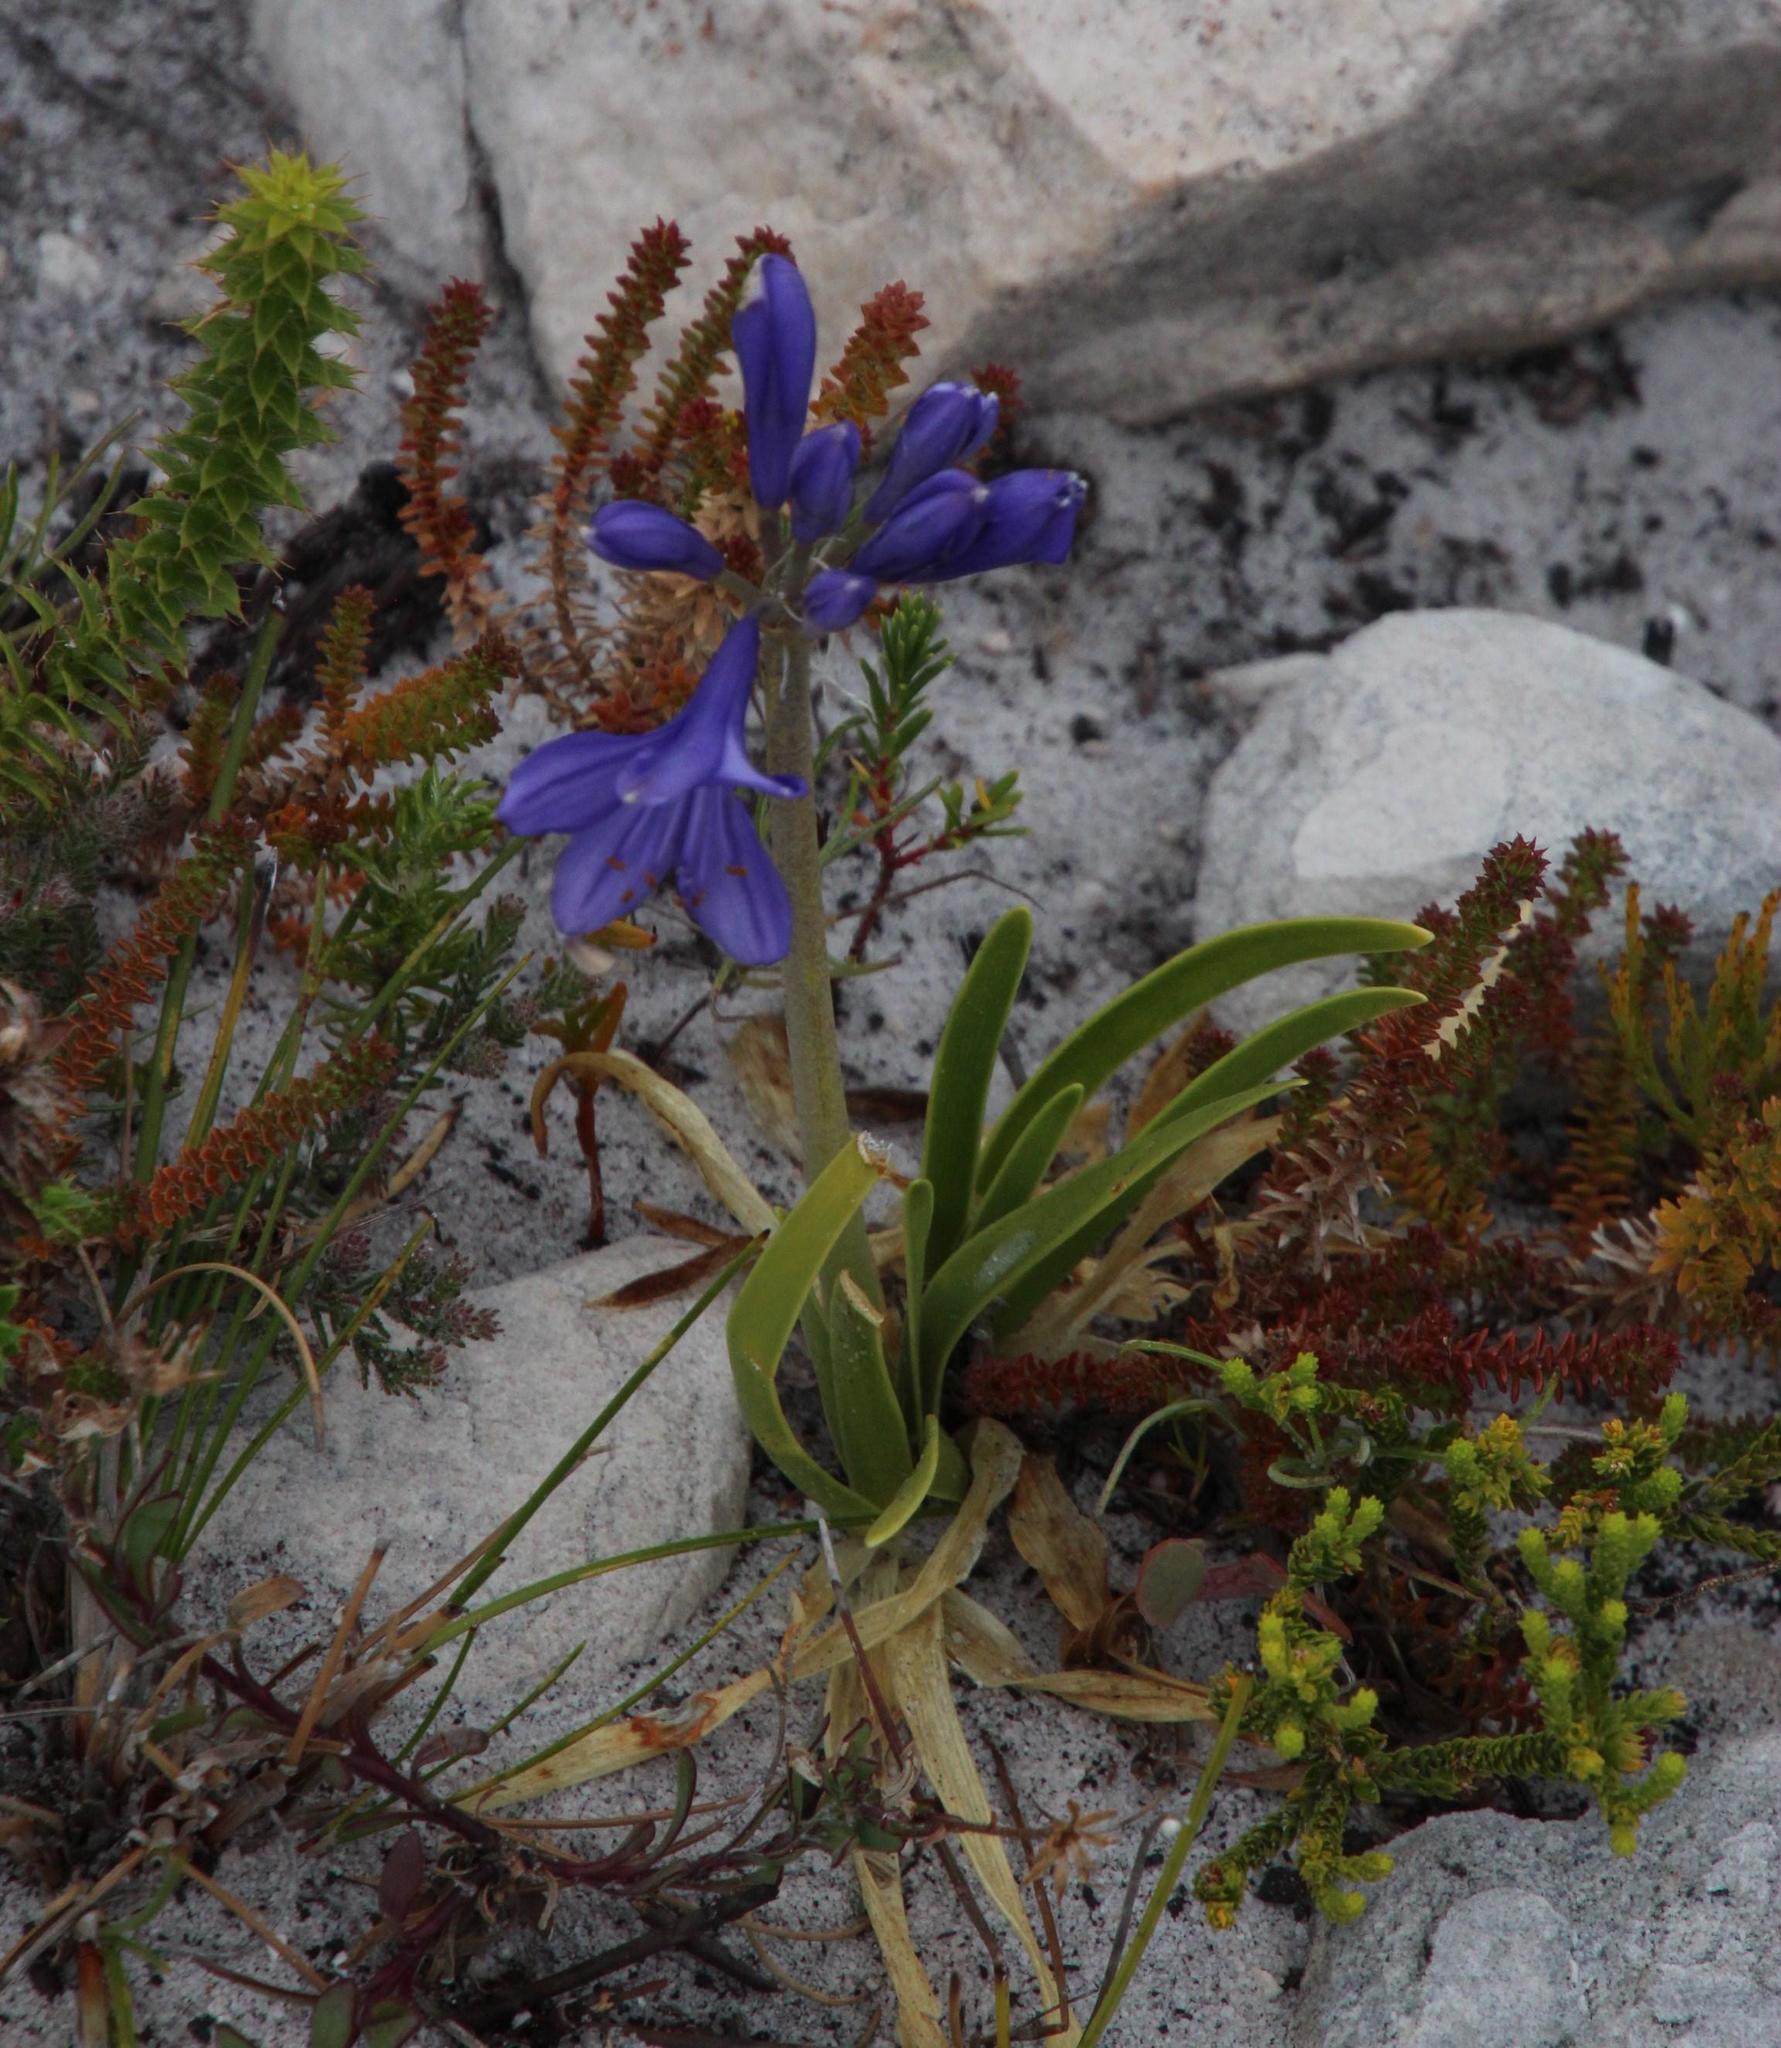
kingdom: Plantae
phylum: Tracheophyta
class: Liliopsida
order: Asparagales
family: Amaryllidaceae
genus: Agapanthus
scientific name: Agapanthus africanus
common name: Lily-of-the-nile
